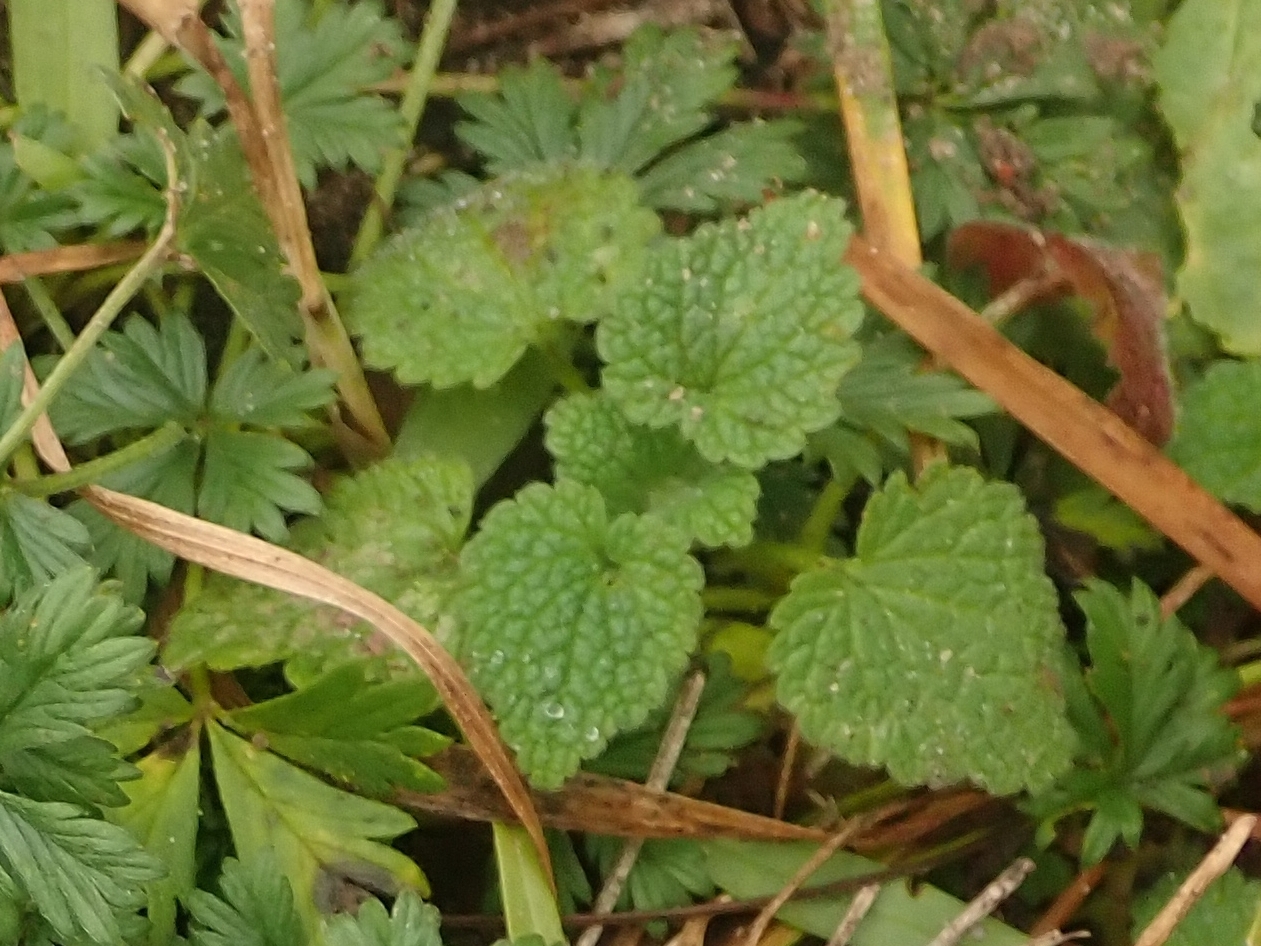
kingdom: Plantae
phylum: Tracheophyta
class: Magnoliopsida
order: Lamiales
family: Lamiaceae
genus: Lamium
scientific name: Lamium purpureum
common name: Red dead-nettle
